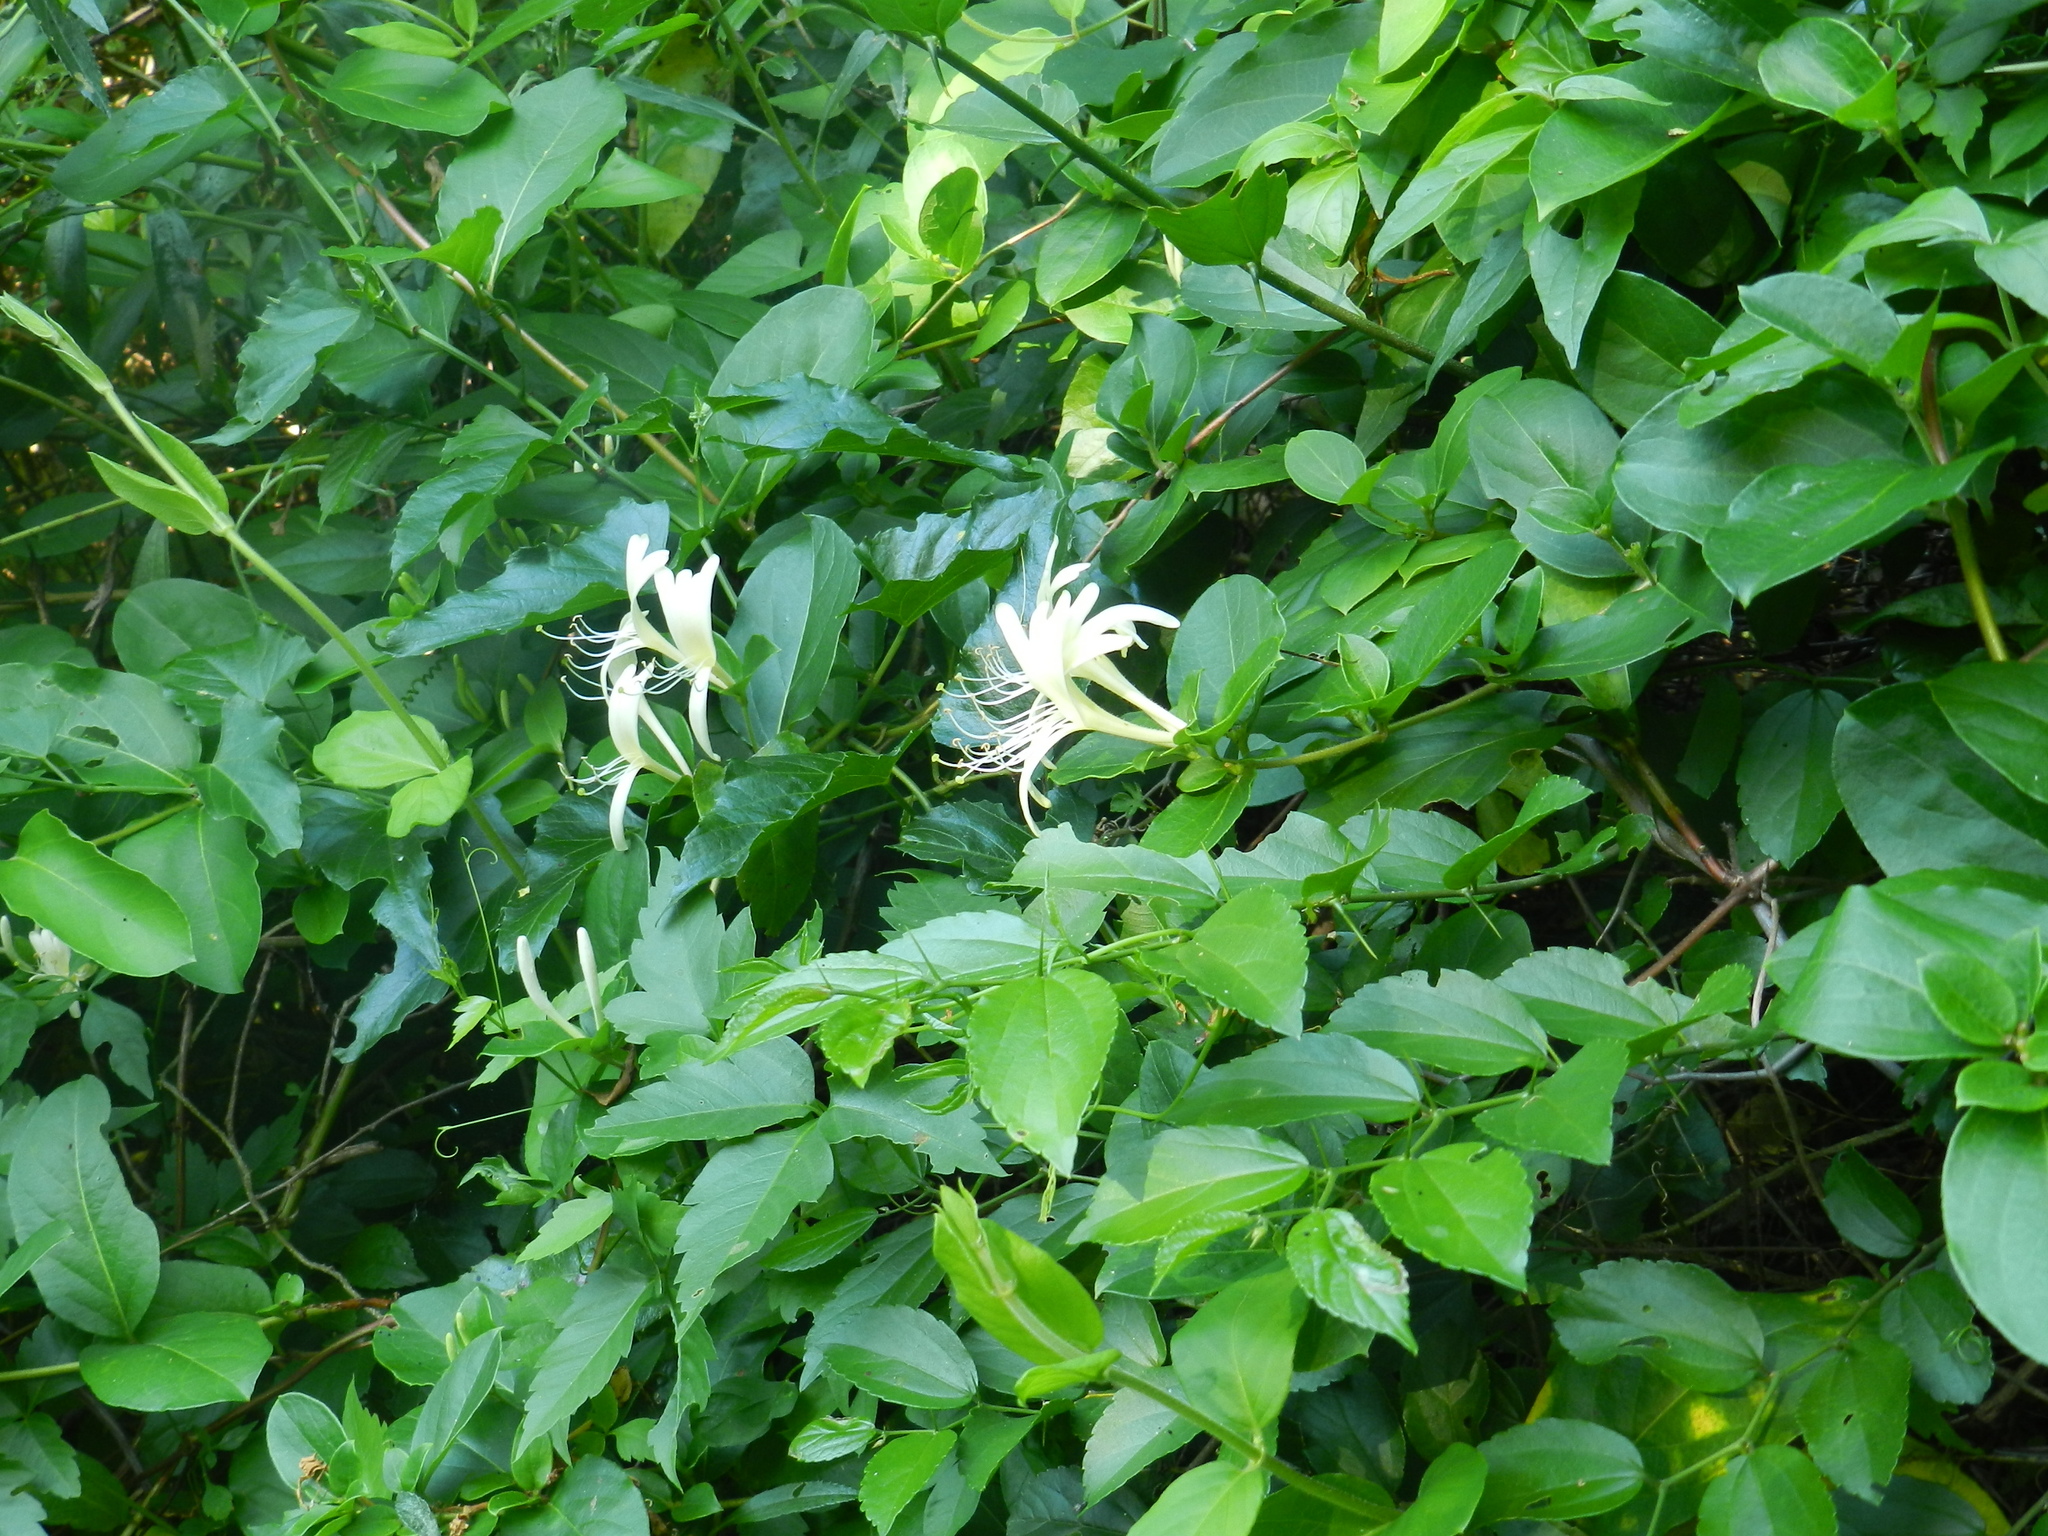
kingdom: Plantae
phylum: Tracheophyta
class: Magnoliopsida
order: Dipsacales
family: Caprifoliaceae
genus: Lonicera
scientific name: Lonicera japonica
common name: Japanese honeysuckle
